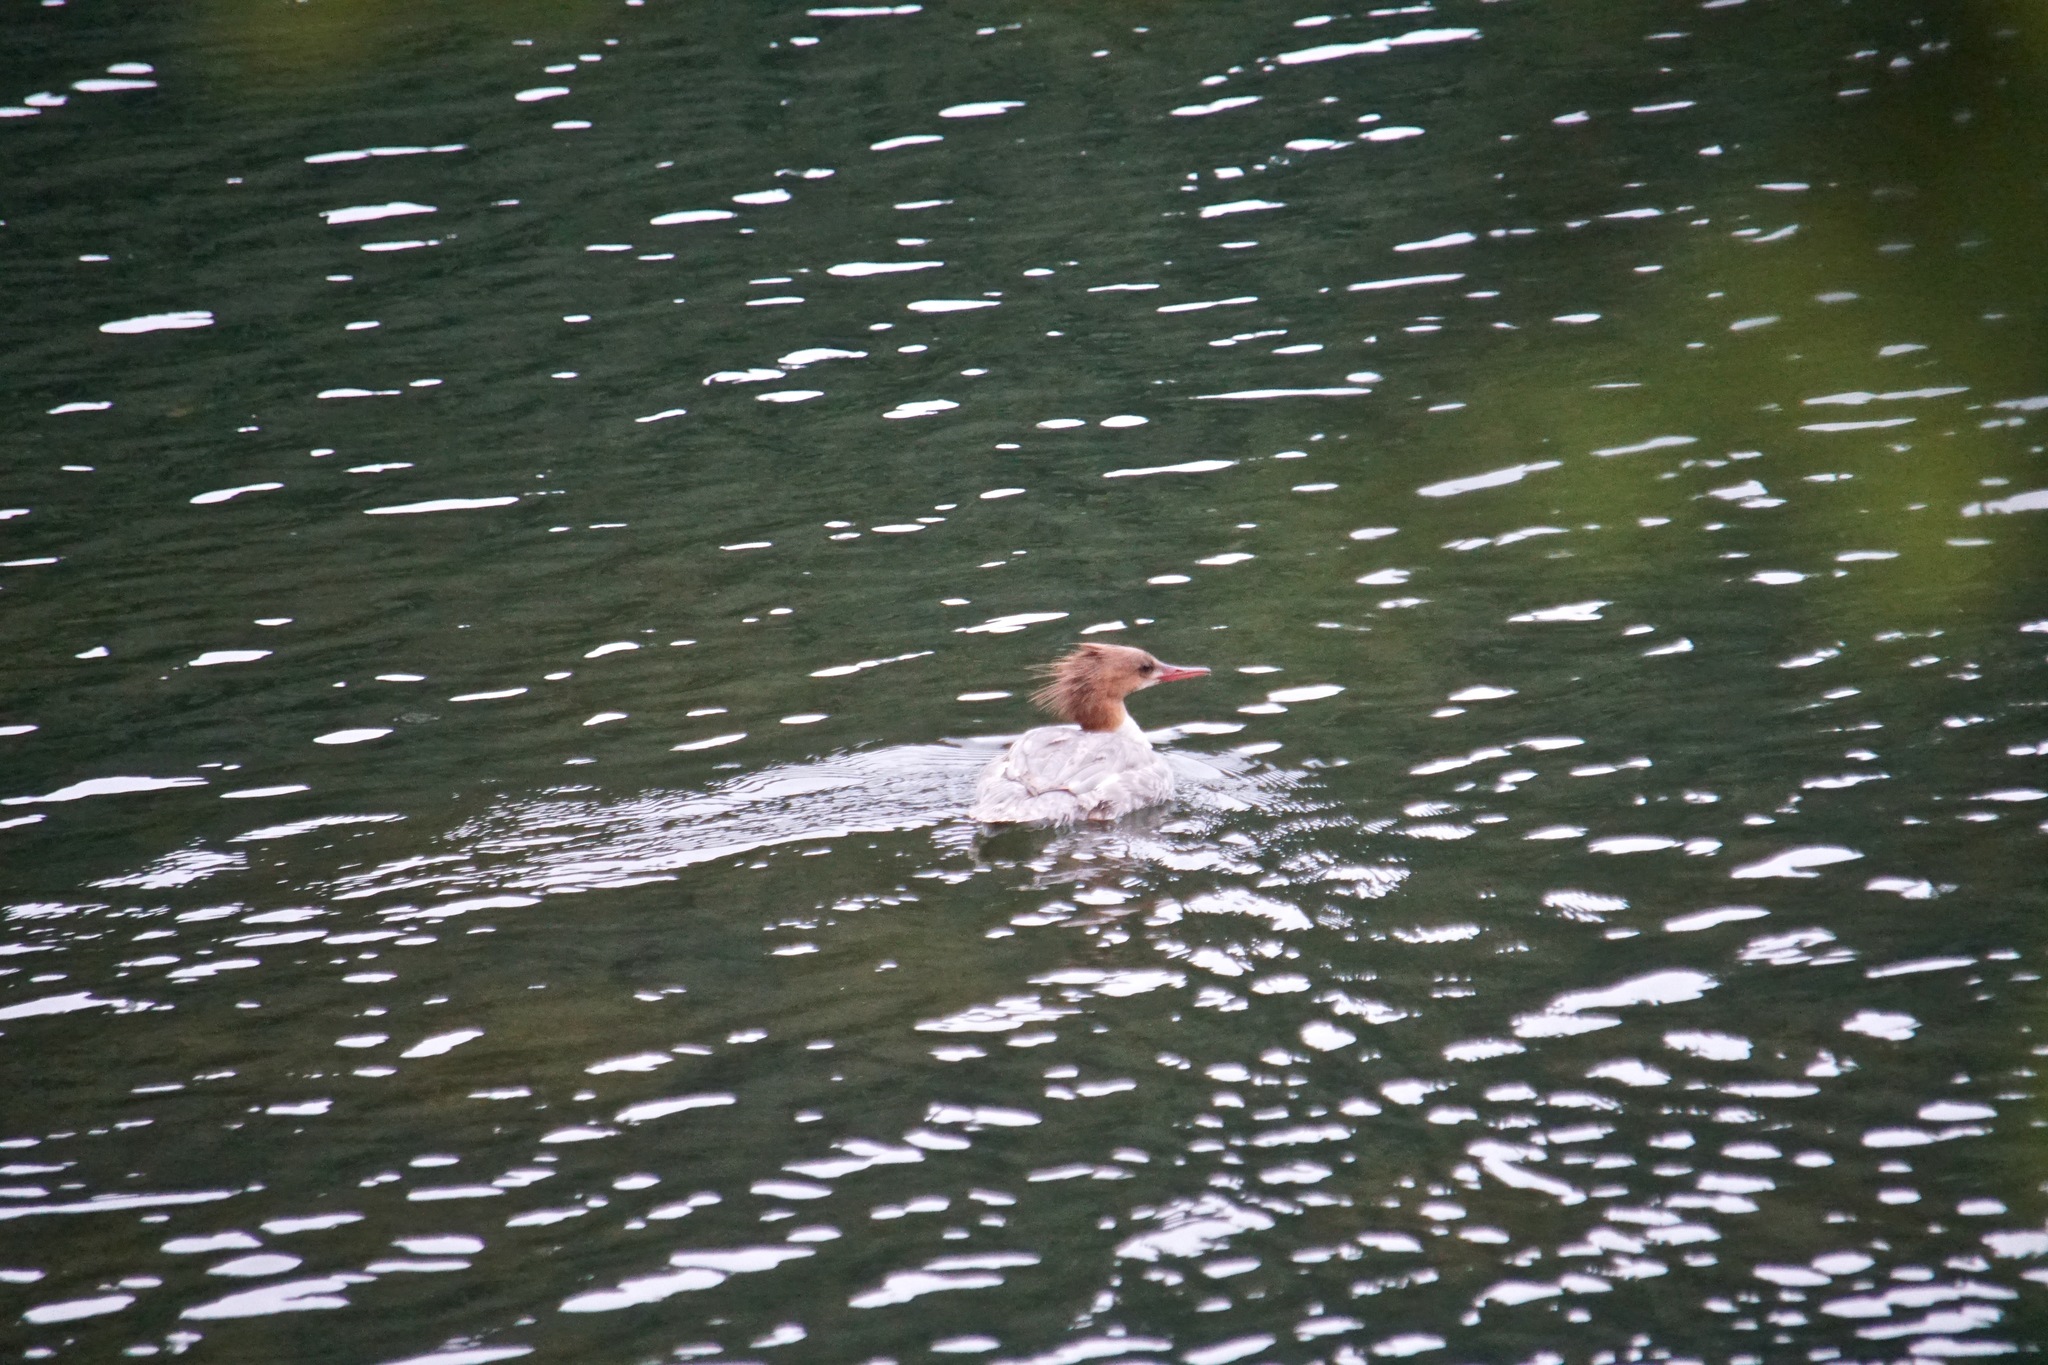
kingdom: Animalia
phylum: Chordata
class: Aves
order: Anseriformes
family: Anatidae
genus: Mergus
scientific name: Mergus merganser
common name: Common merganser
